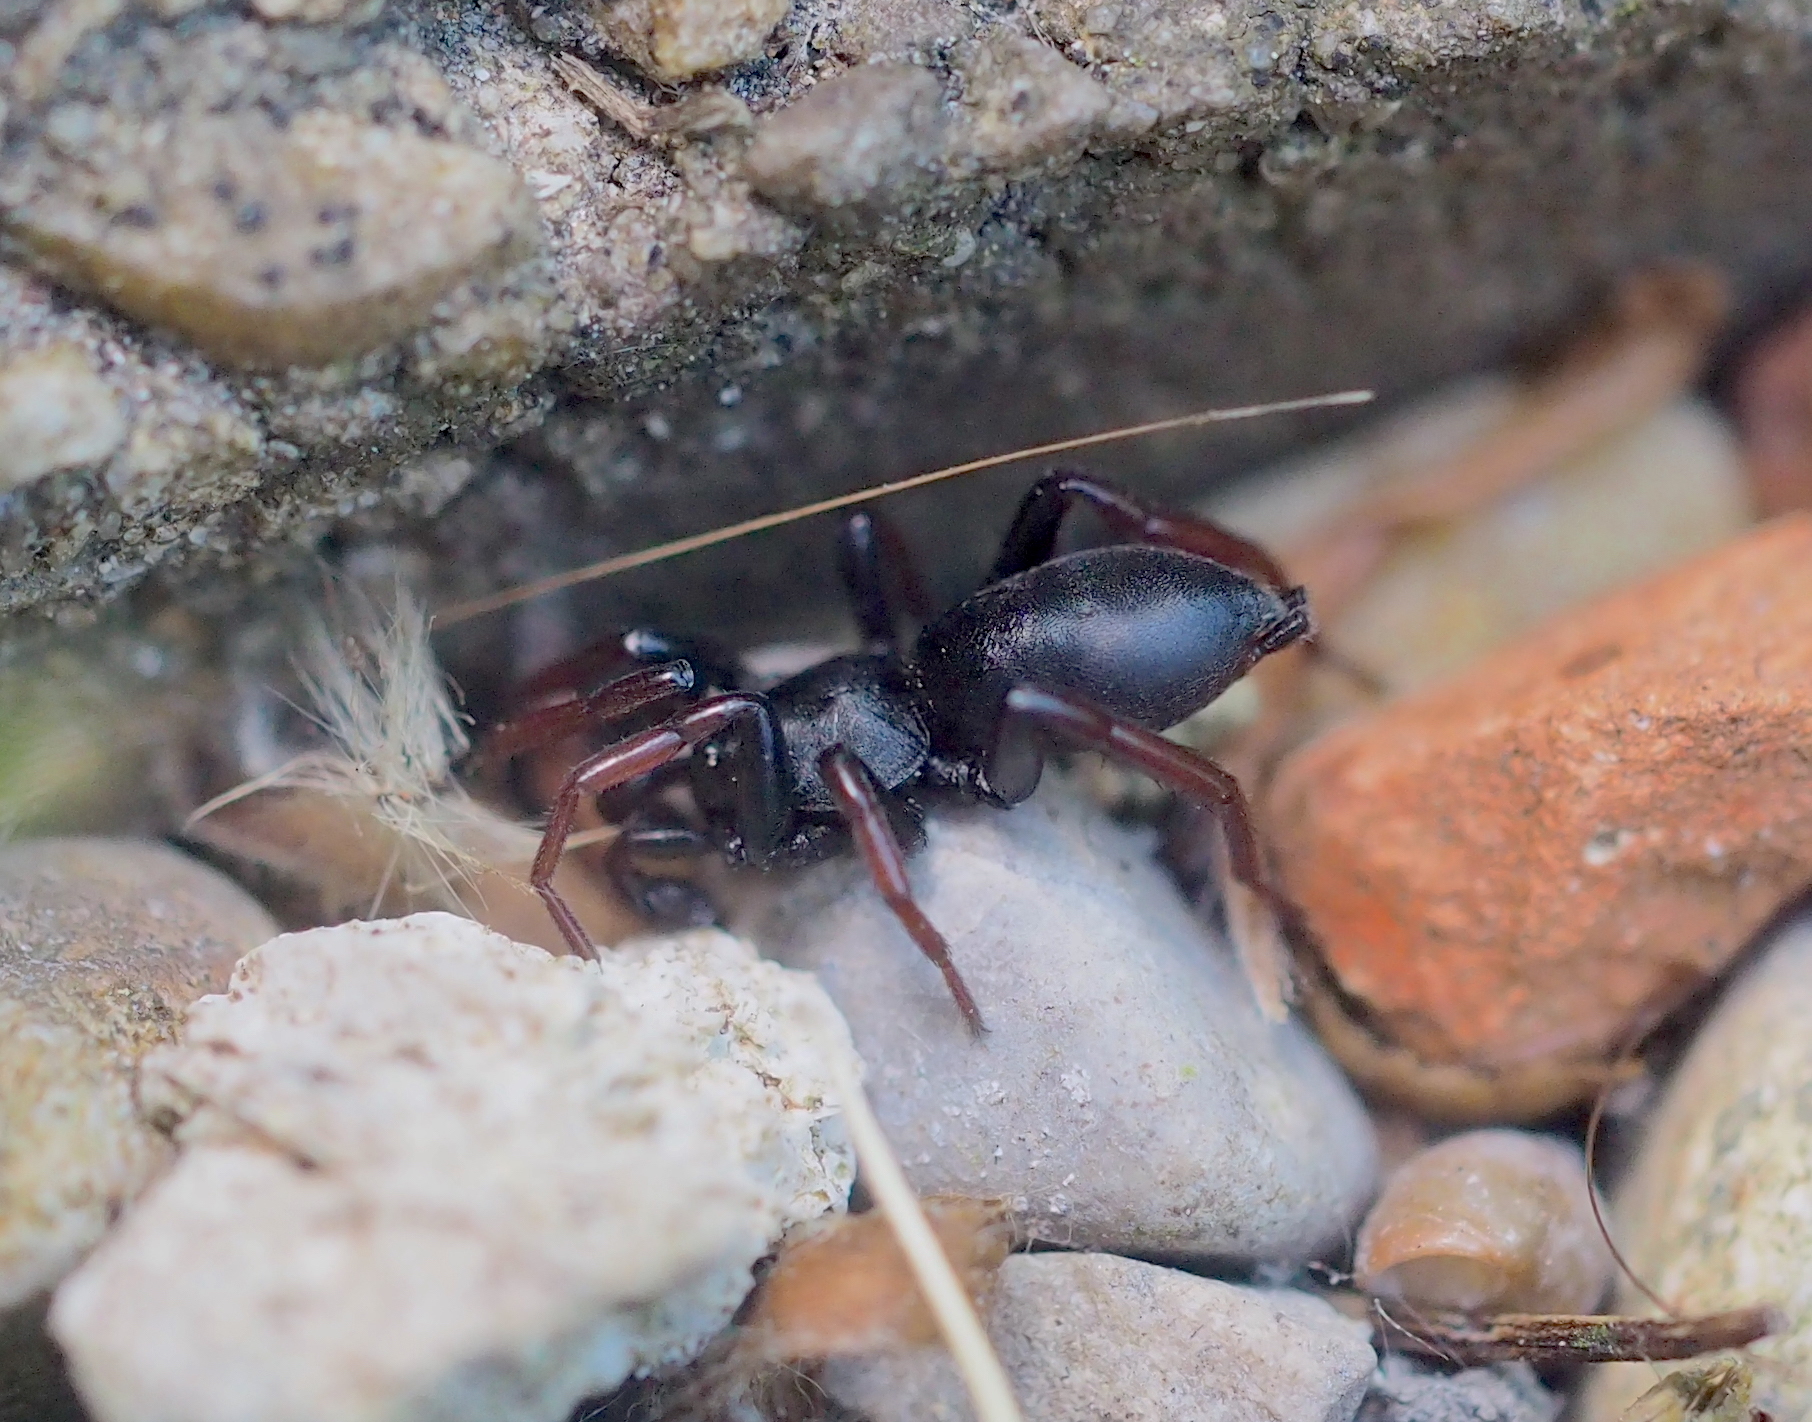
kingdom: Animalia
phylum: Arthropoda
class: Arachnida
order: Araneae
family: Gnaphosidae
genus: Trachyzelotes
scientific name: Trachyzelotes pedestris
